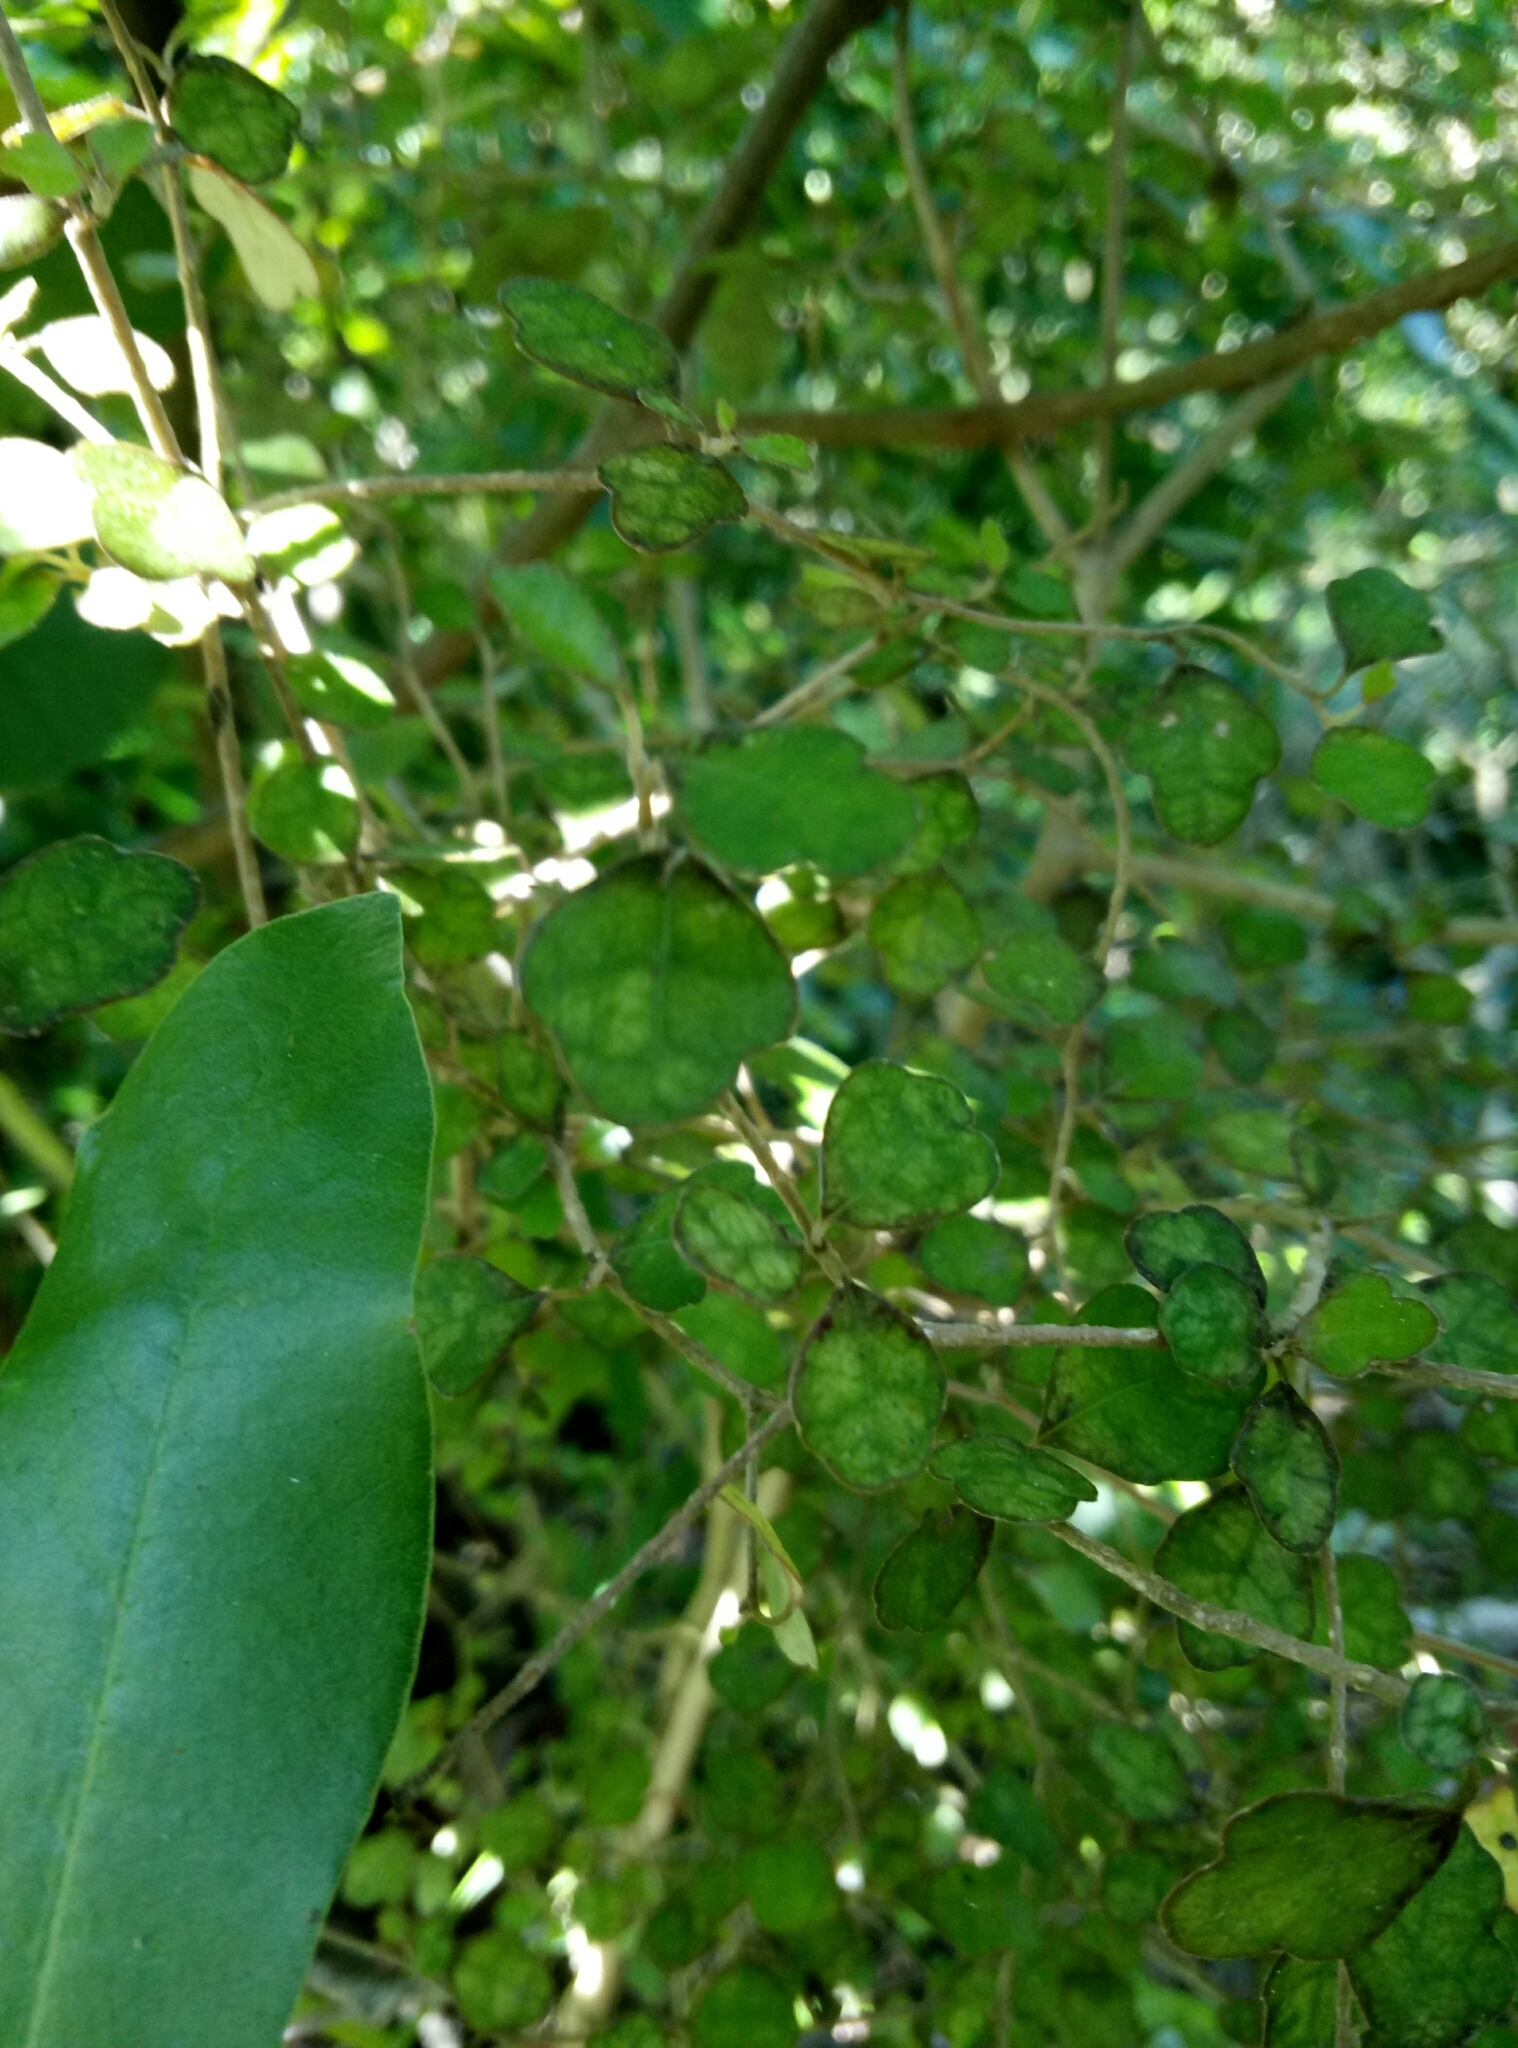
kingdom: Plantae
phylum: Tracheophyta
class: Magnoliopsida
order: Apiales
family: Pennantiaceae
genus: Pennantia
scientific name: Pennantia corymbosa
